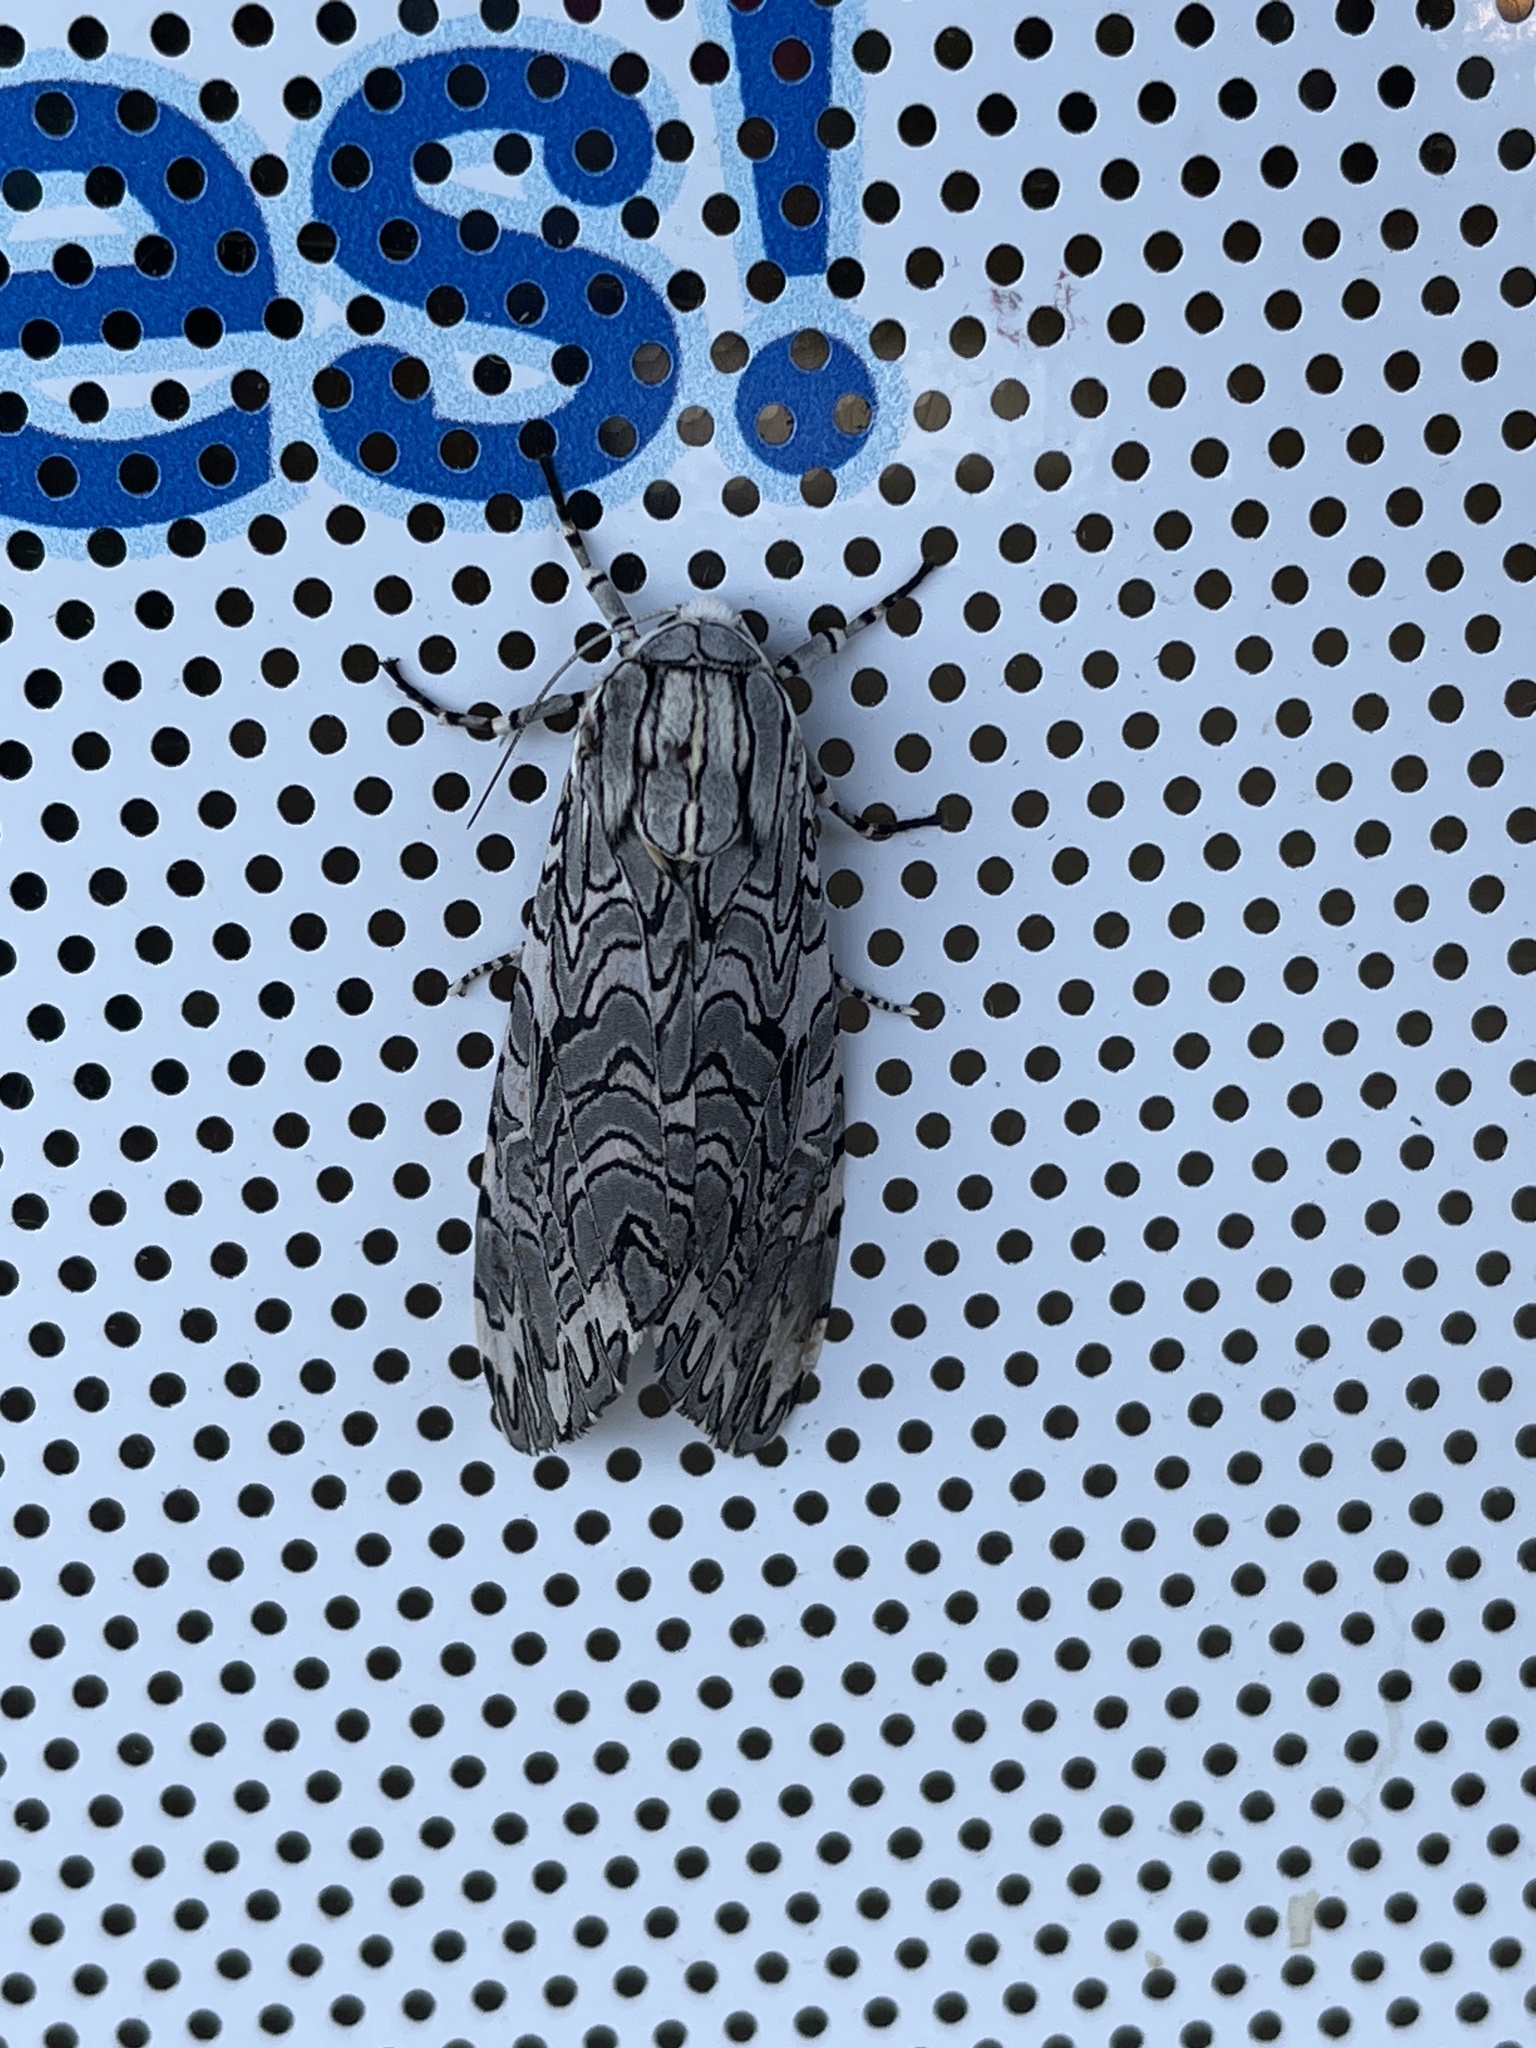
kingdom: Animalia
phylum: Arthropoda
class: Insecta
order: Lepidoptera
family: Erebidae
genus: Arachnis
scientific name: Arachnis picta
